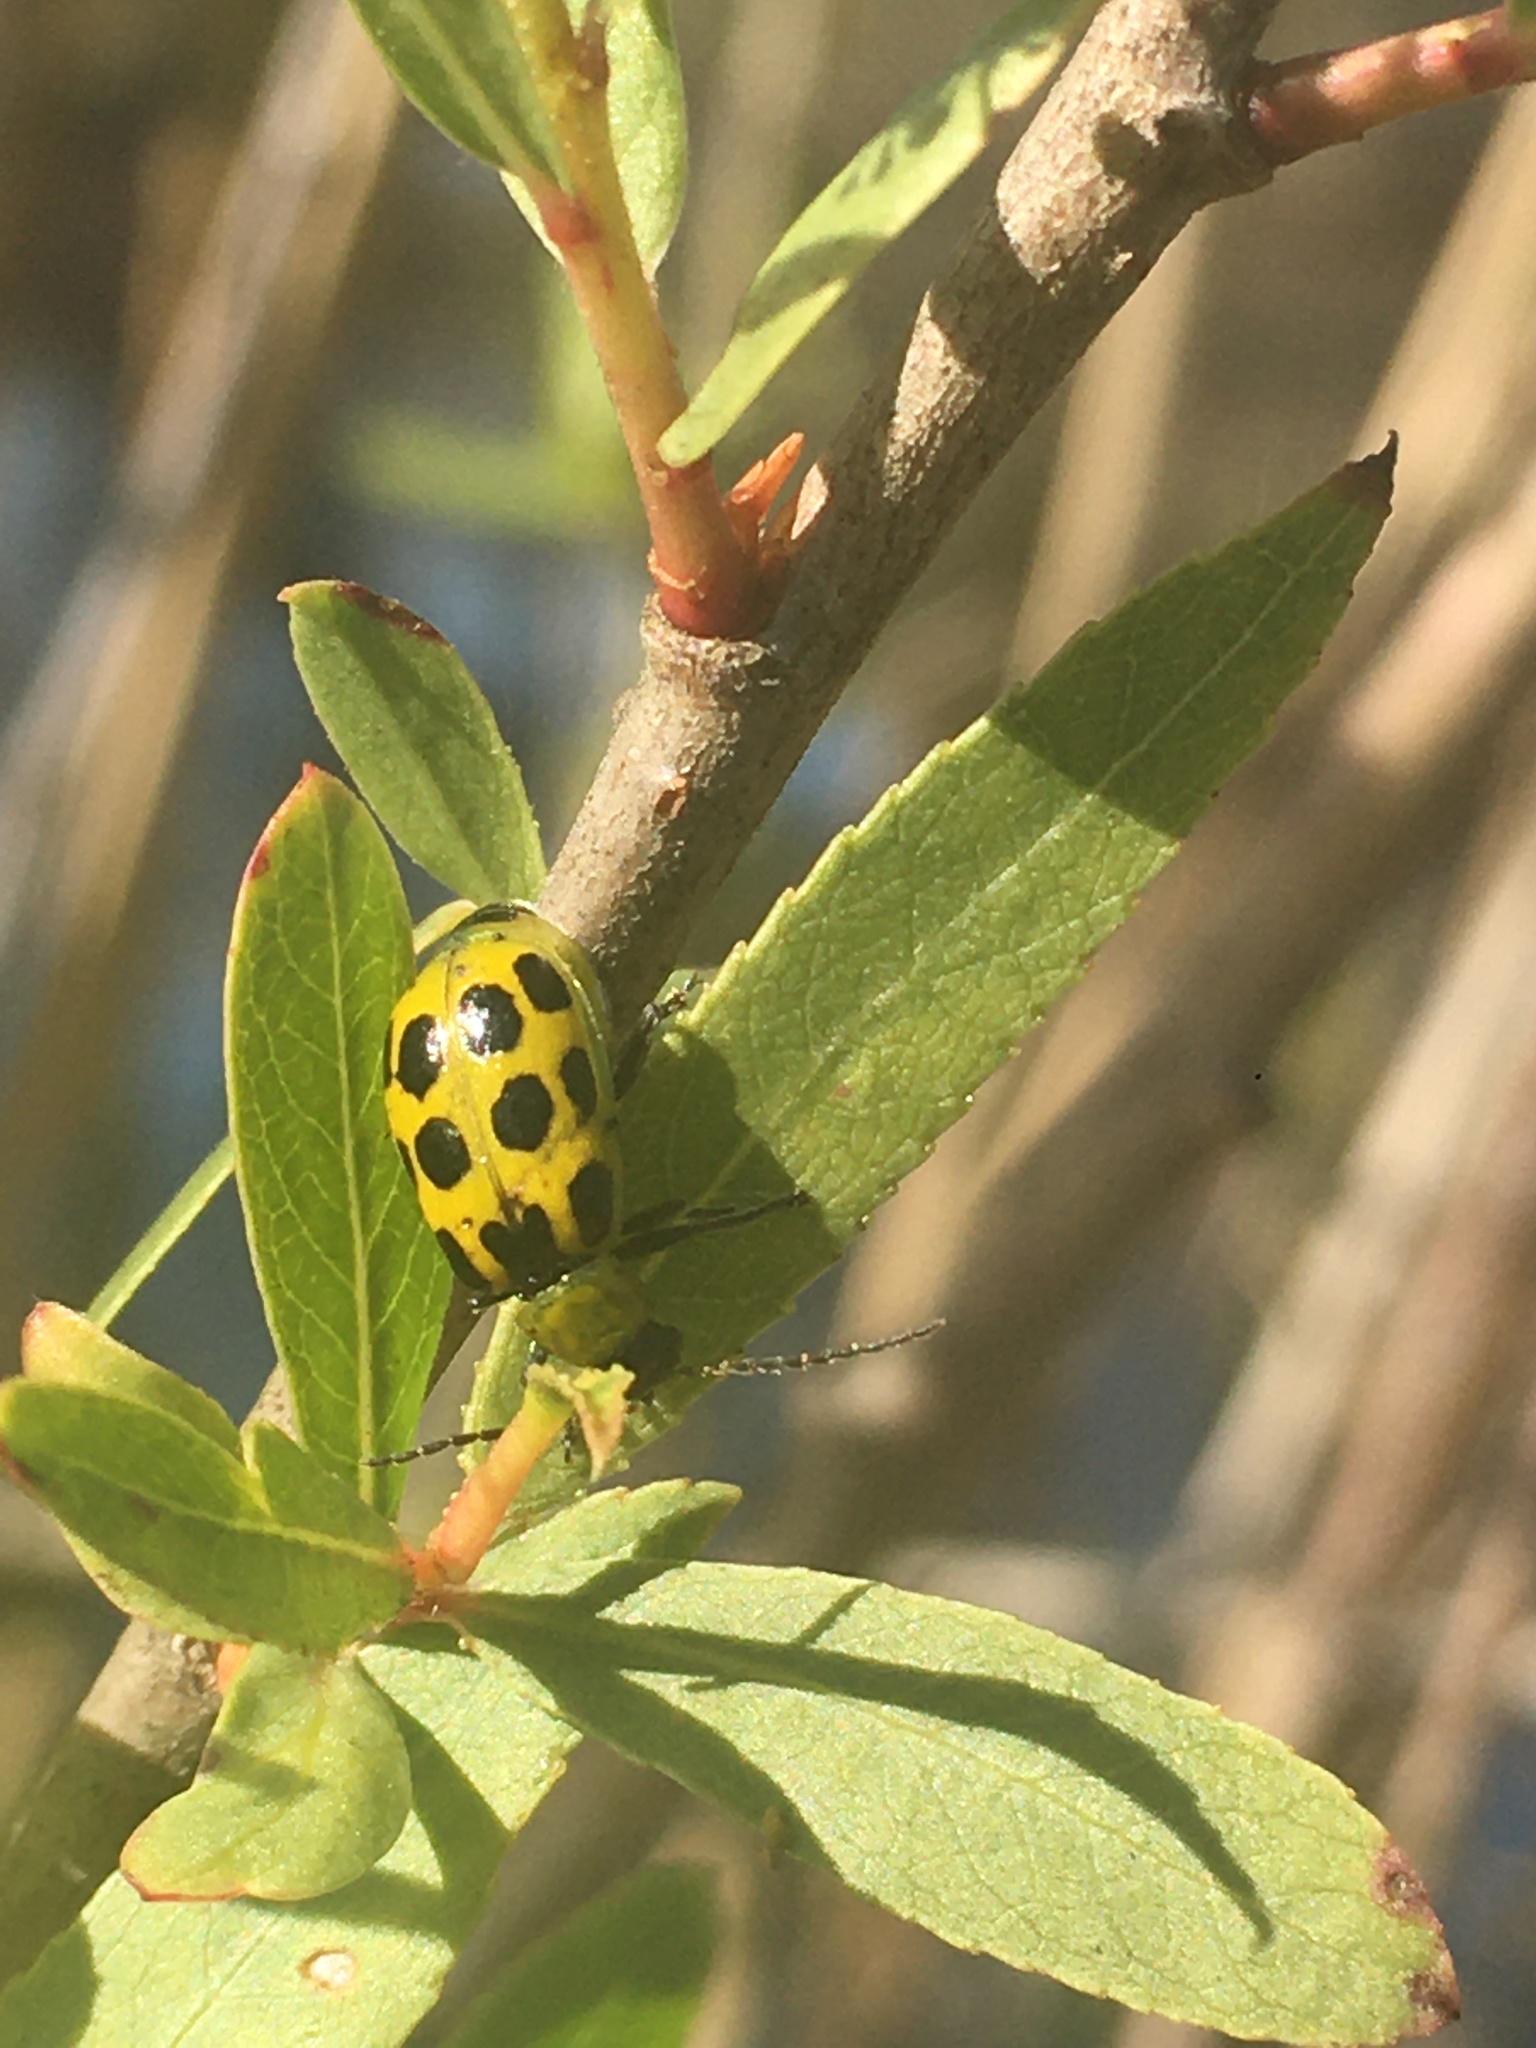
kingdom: Animalia
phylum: Arthropoda
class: Insecta
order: Coleoptera
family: Chrysomelidae
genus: Diabrotica
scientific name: Diabrotica undecimpunctata
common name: Spotted cucumber beetle
